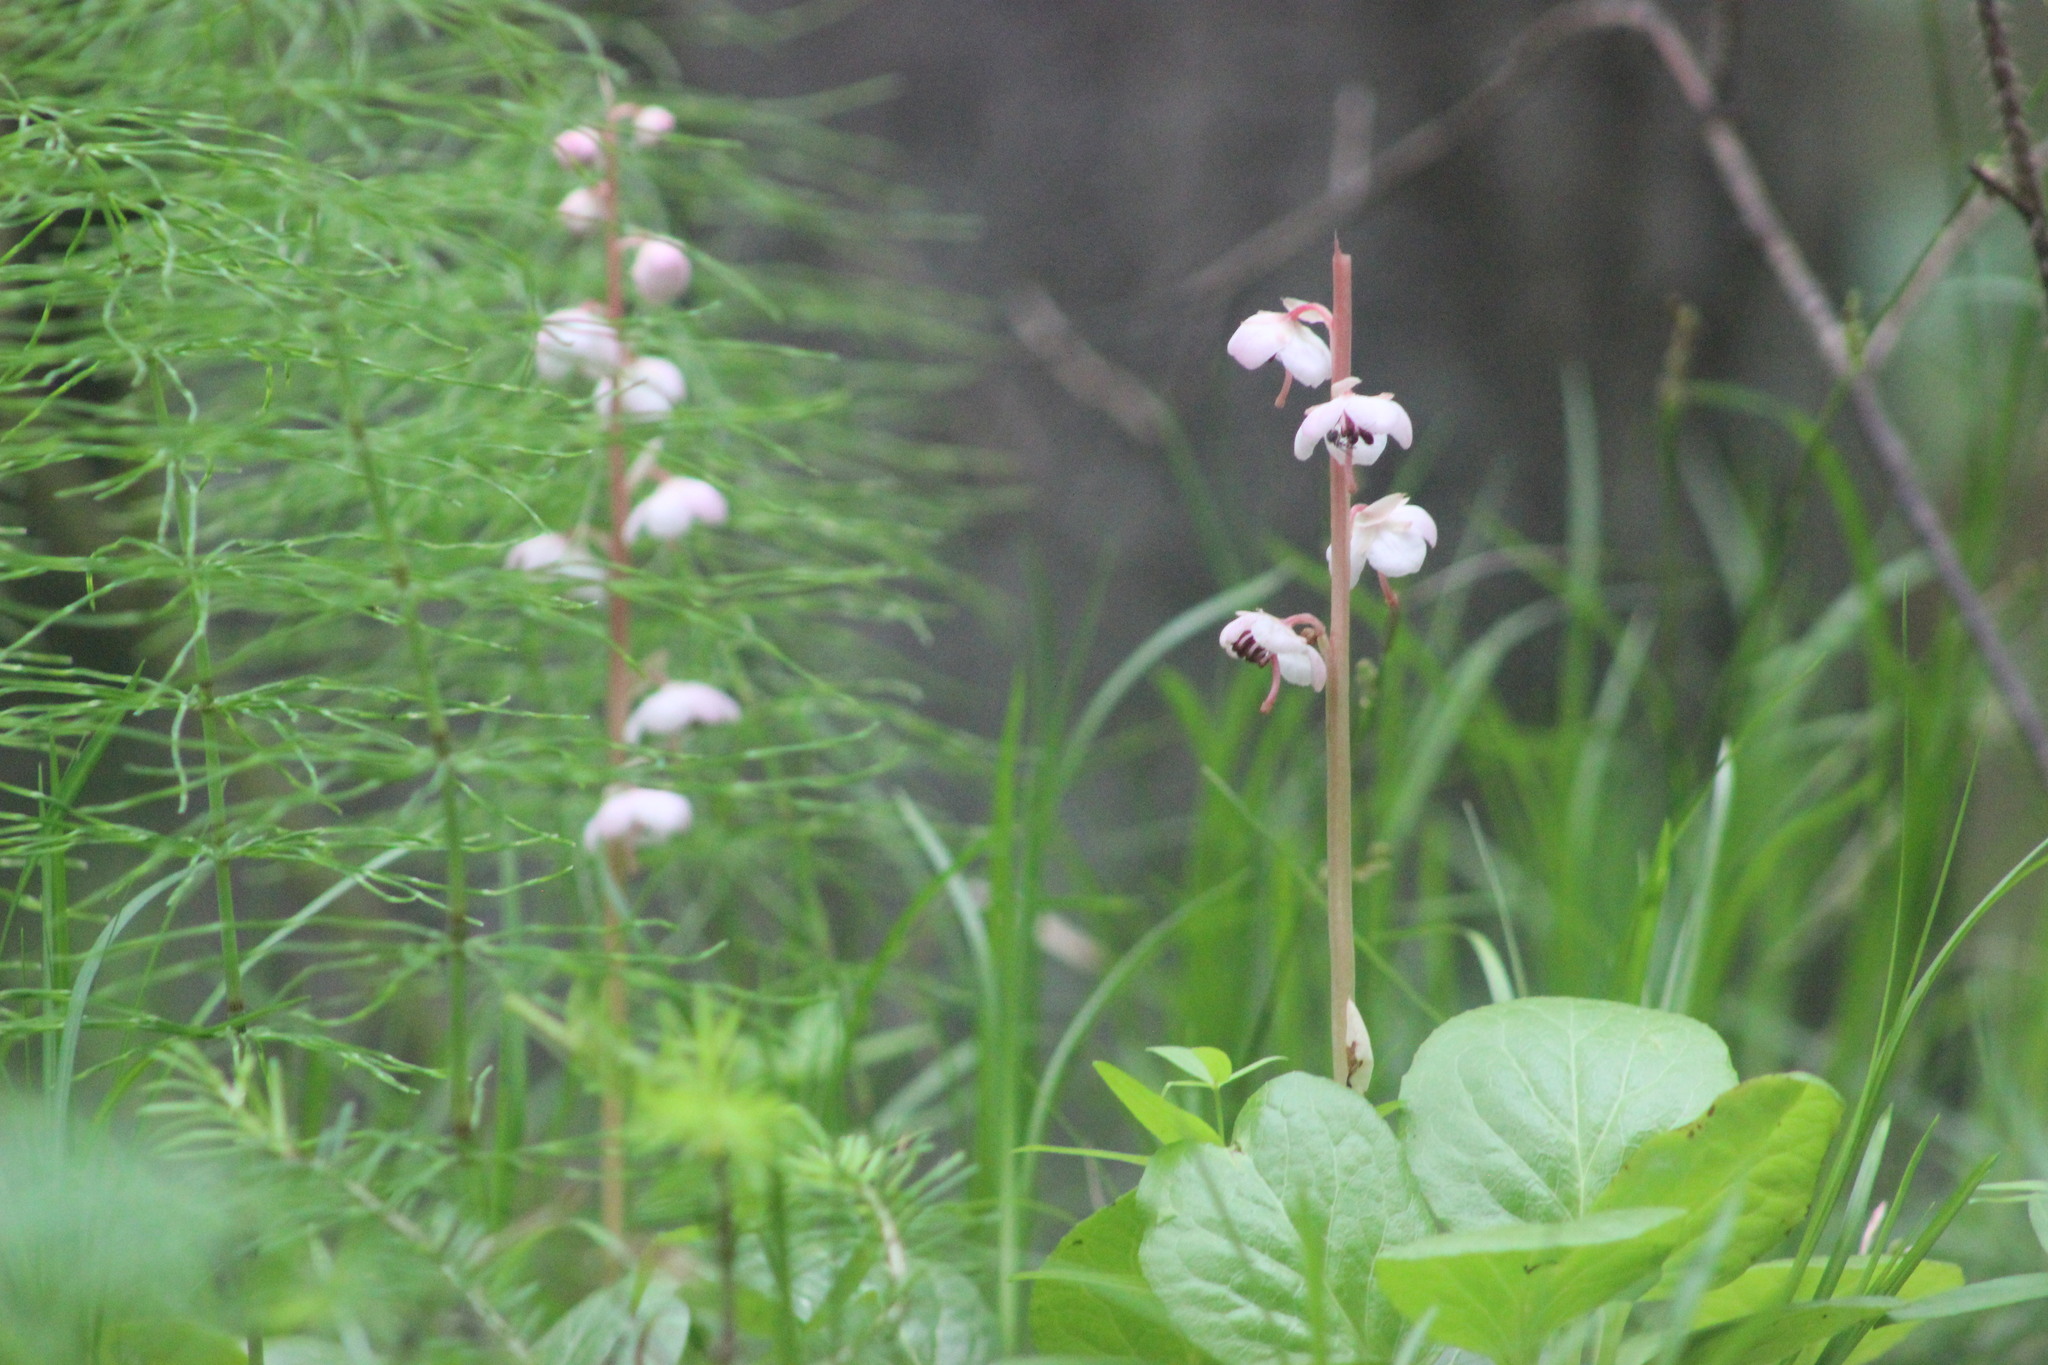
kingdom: Plantae
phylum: Tracheophyta
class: Magnoliopsida
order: Ericales
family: Ericaceae
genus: Pyrola
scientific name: Pyrola asarifolia
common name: Bog wintergreen
